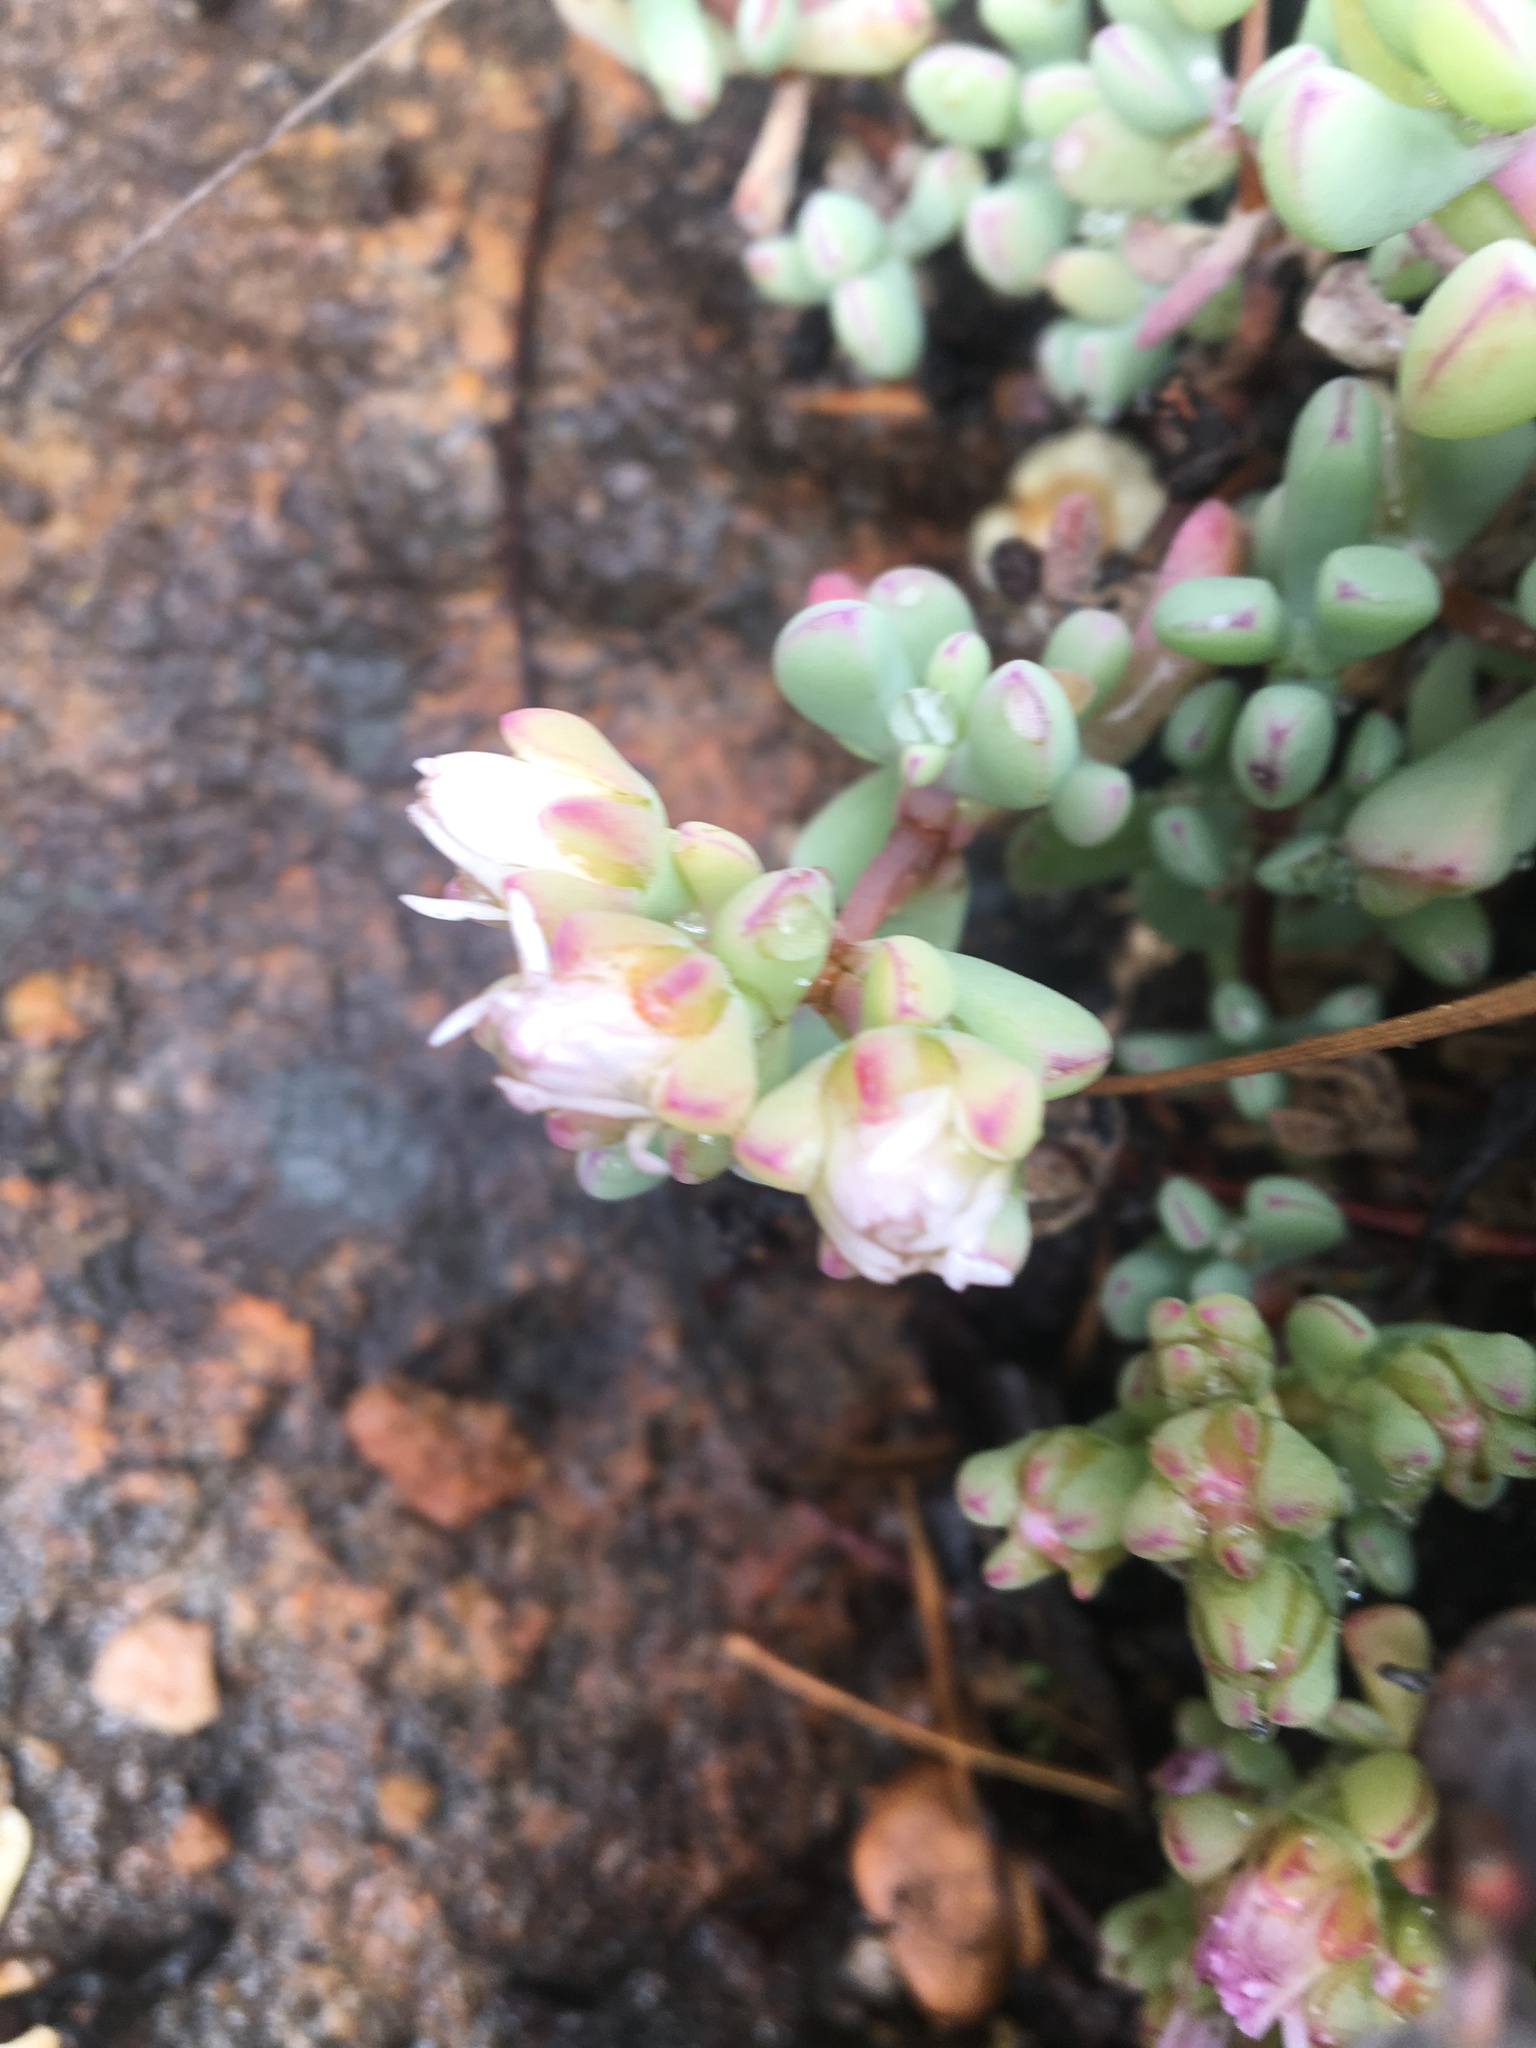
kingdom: Plantae
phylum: Tracheophyta
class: Magnoliopsida
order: Caryophyllales
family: Aizoaceae
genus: Oscularia
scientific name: Oscularia
